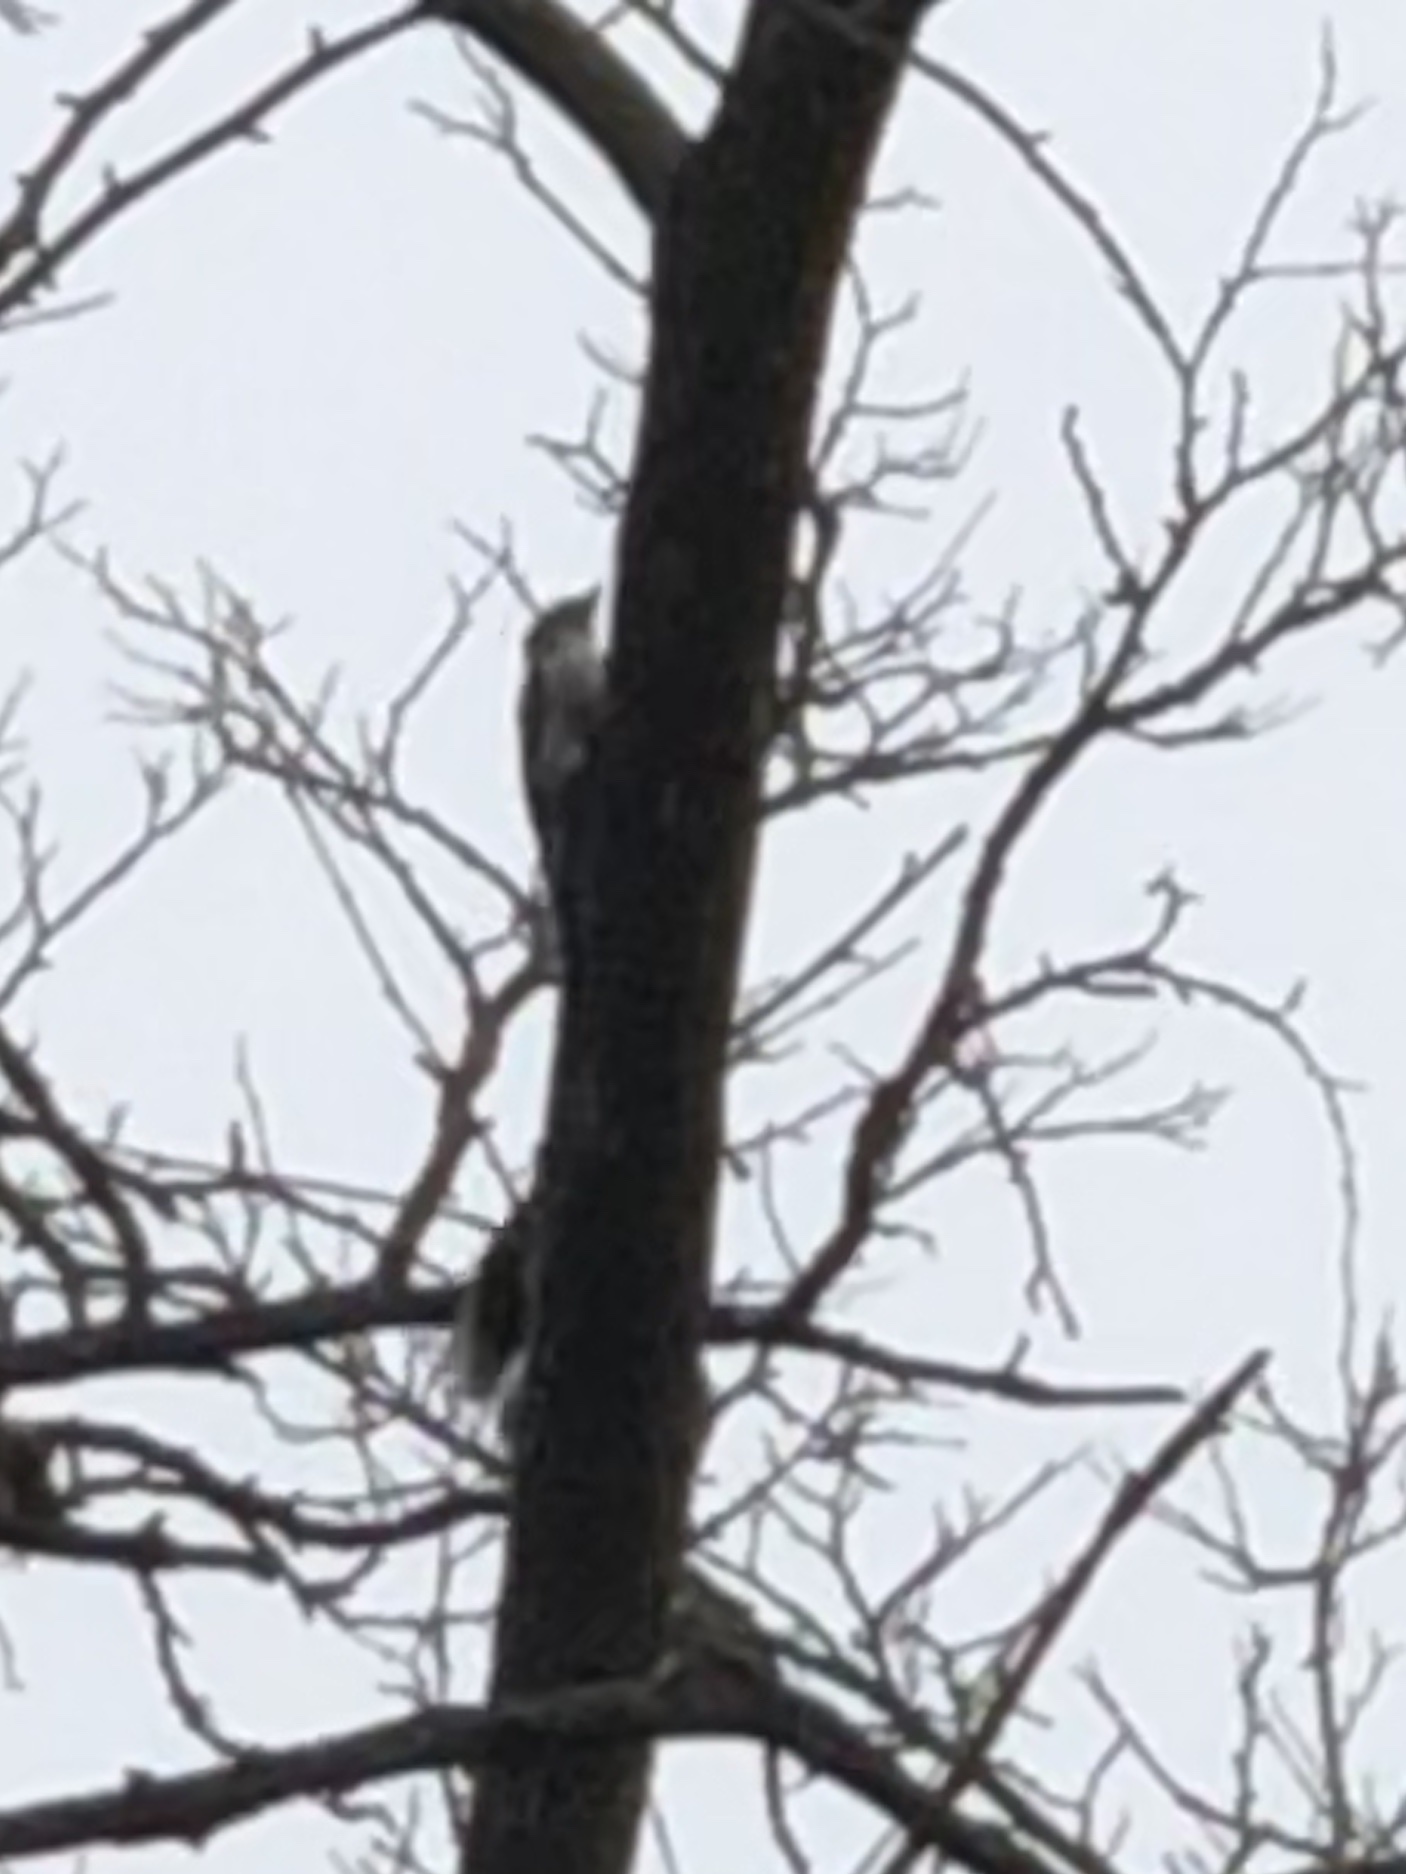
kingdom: Animalia
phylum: Chordata
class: Aves
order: Piciformes
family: Picidae
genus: Dryobates
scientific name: Dryobates pubescens
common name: Downy woodpecker
